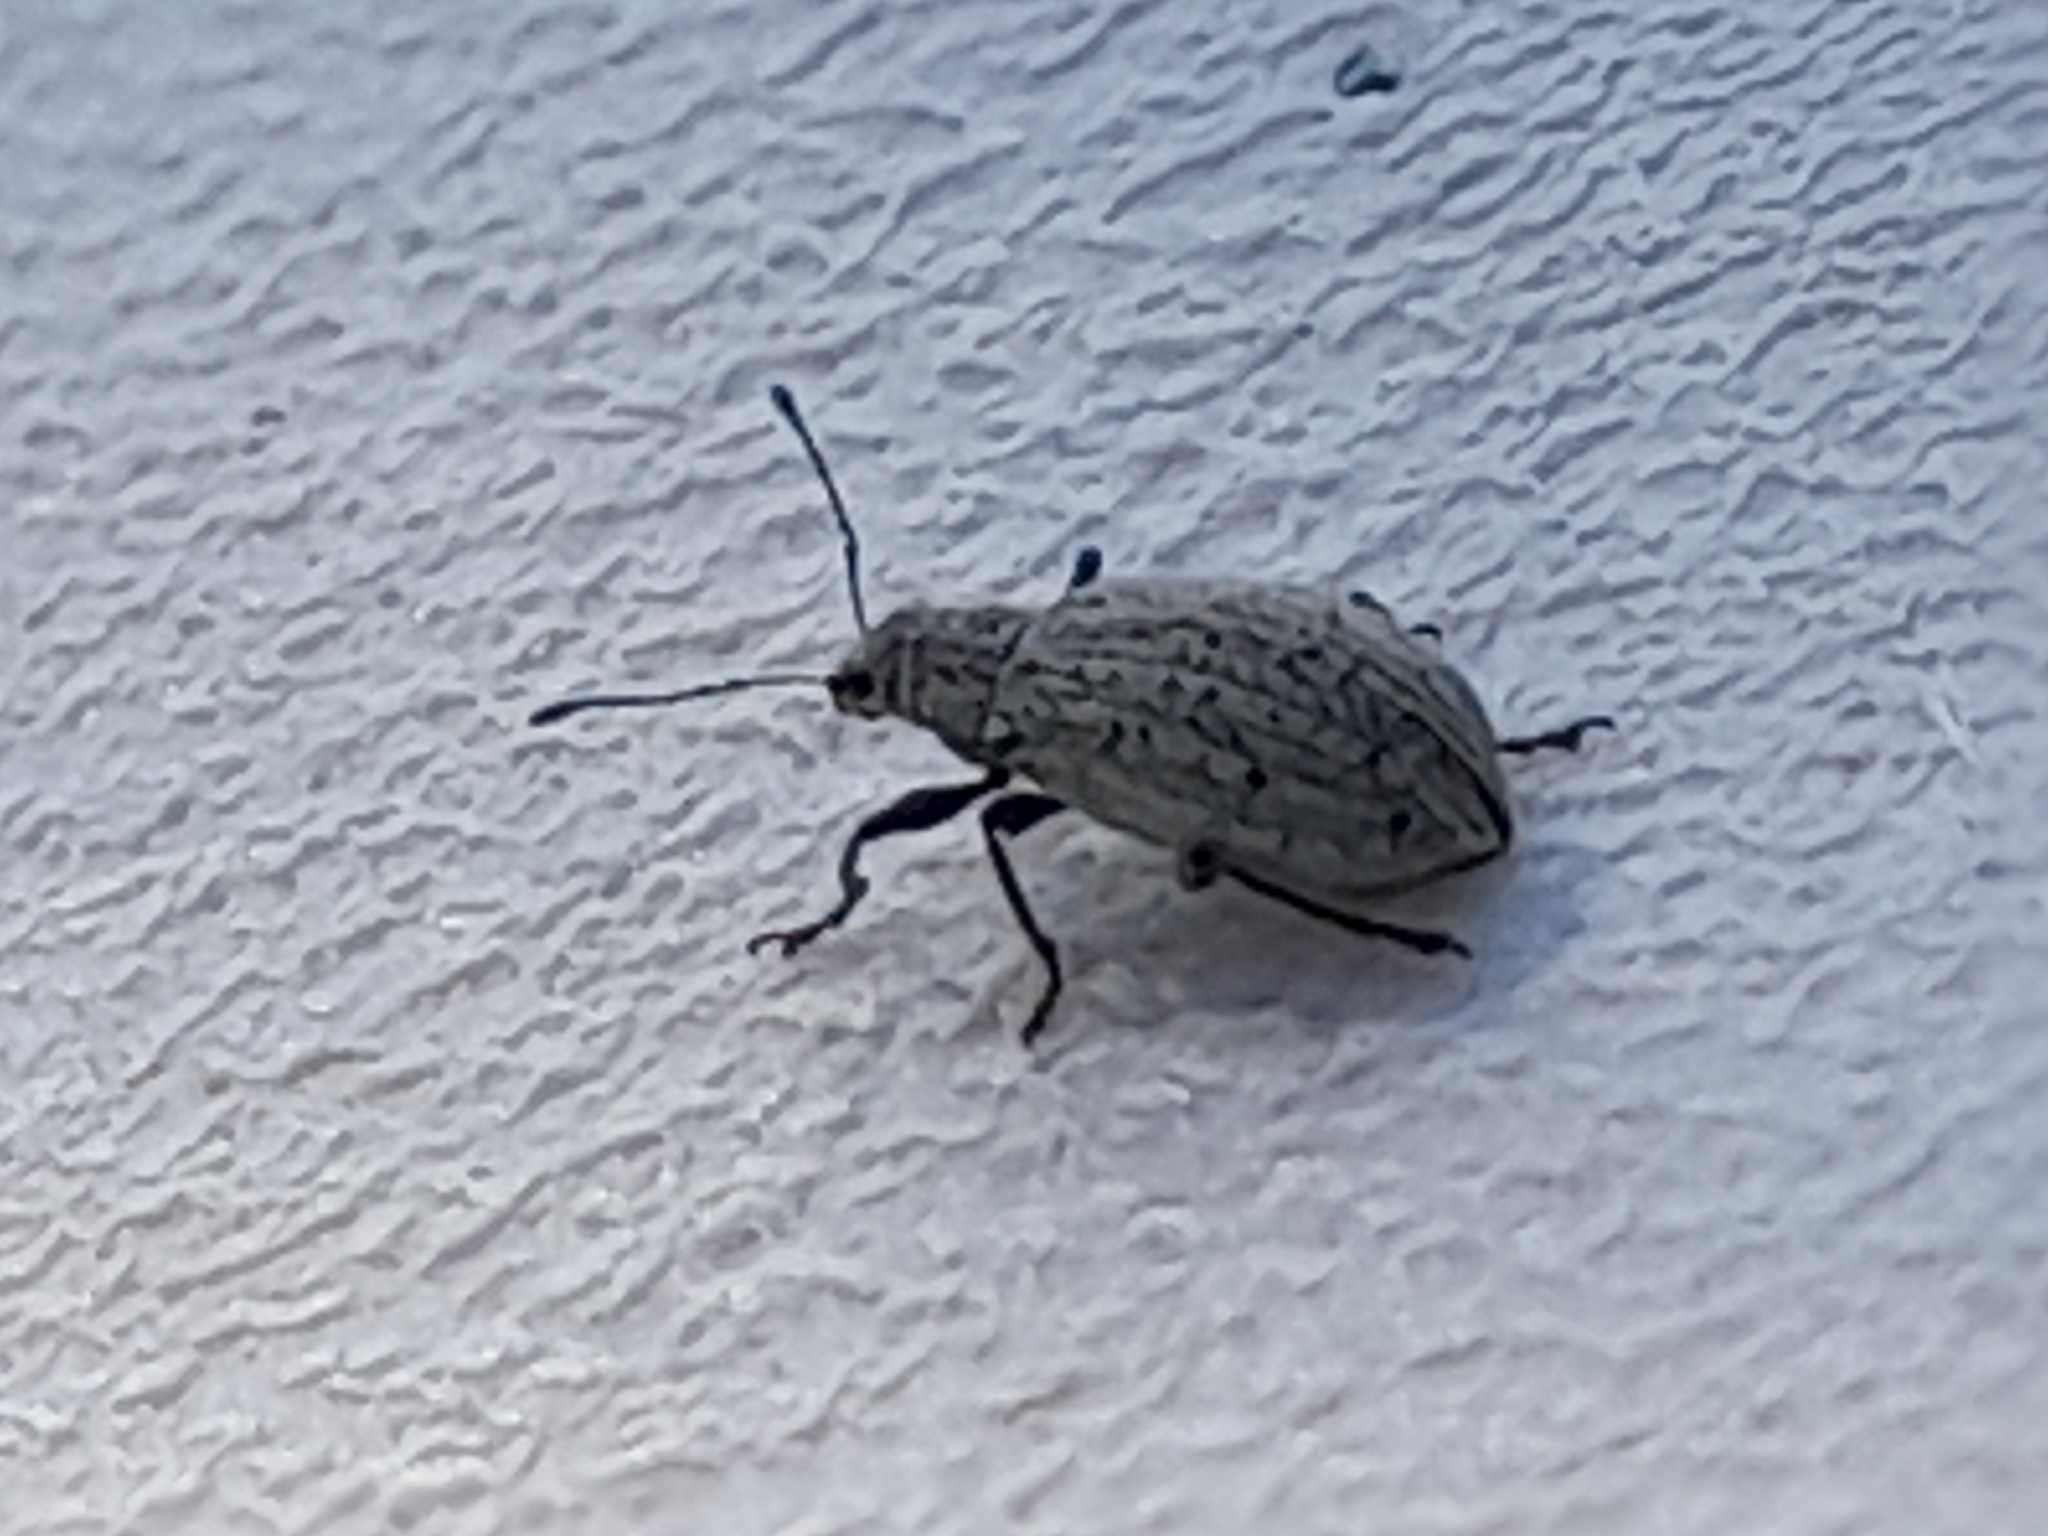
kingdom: Animalia
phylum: Arthropoda
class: Insecta
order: Coleoptera
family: Curculionidae
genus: Polydrusus
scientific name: Polydrusus cervinus
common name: Weevil
